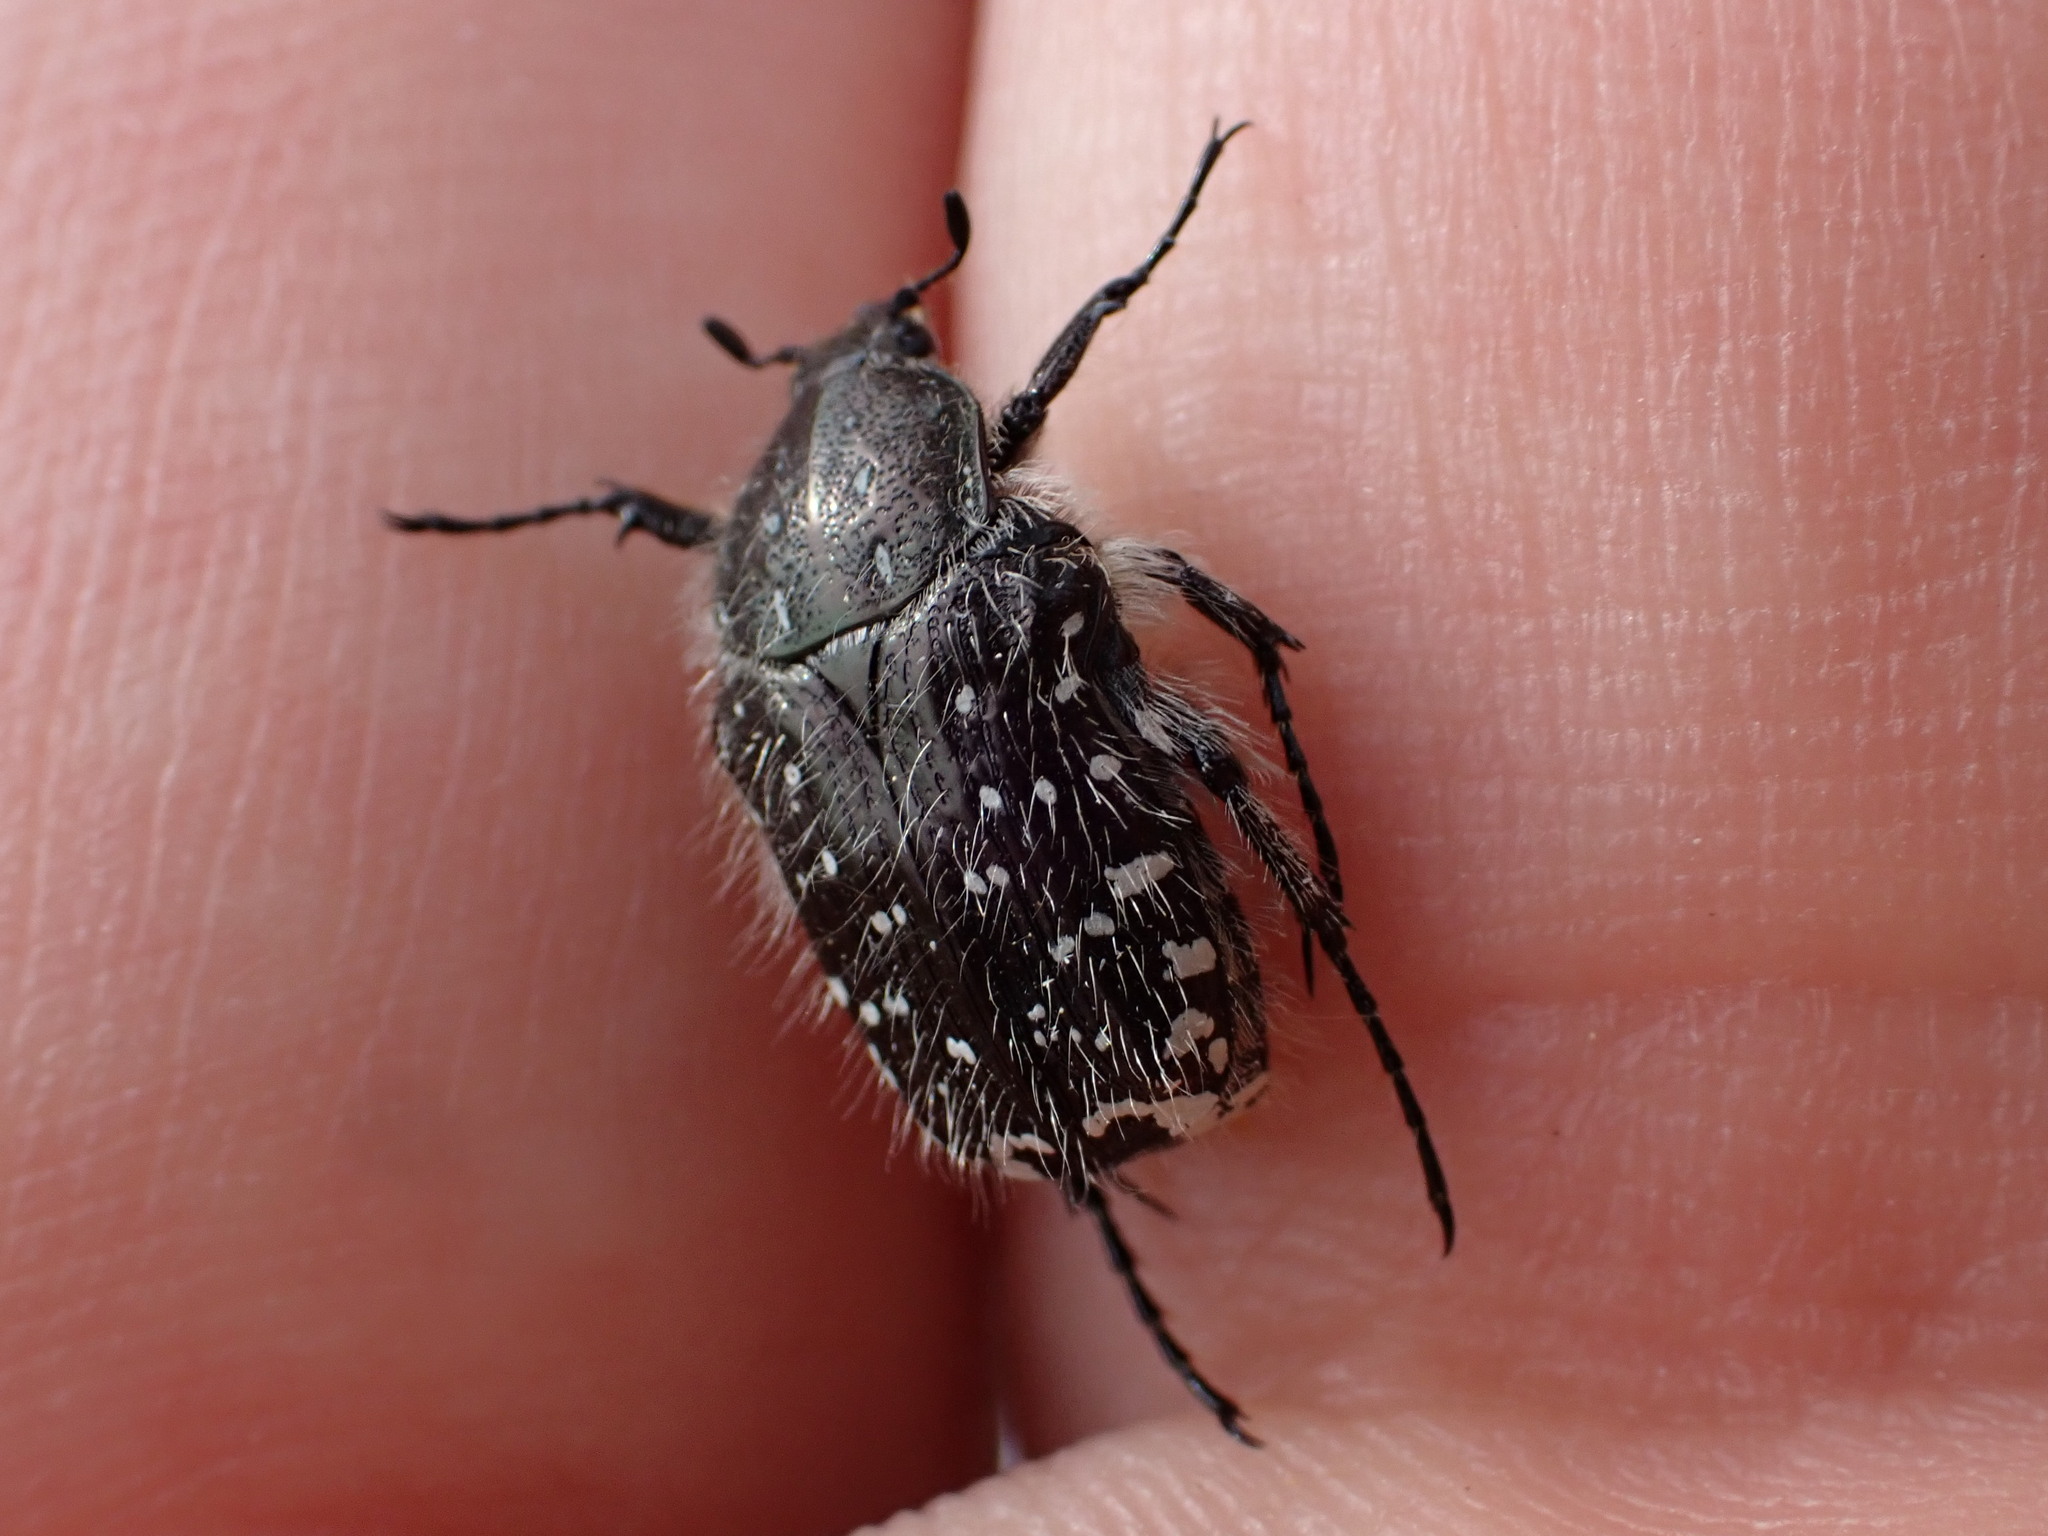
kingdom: Animalia
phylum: Arthropoda
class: Insecta
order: Coleoptera
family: Scarabaeidae
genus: Oxythyrea
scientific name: Oxythyrea funesta
